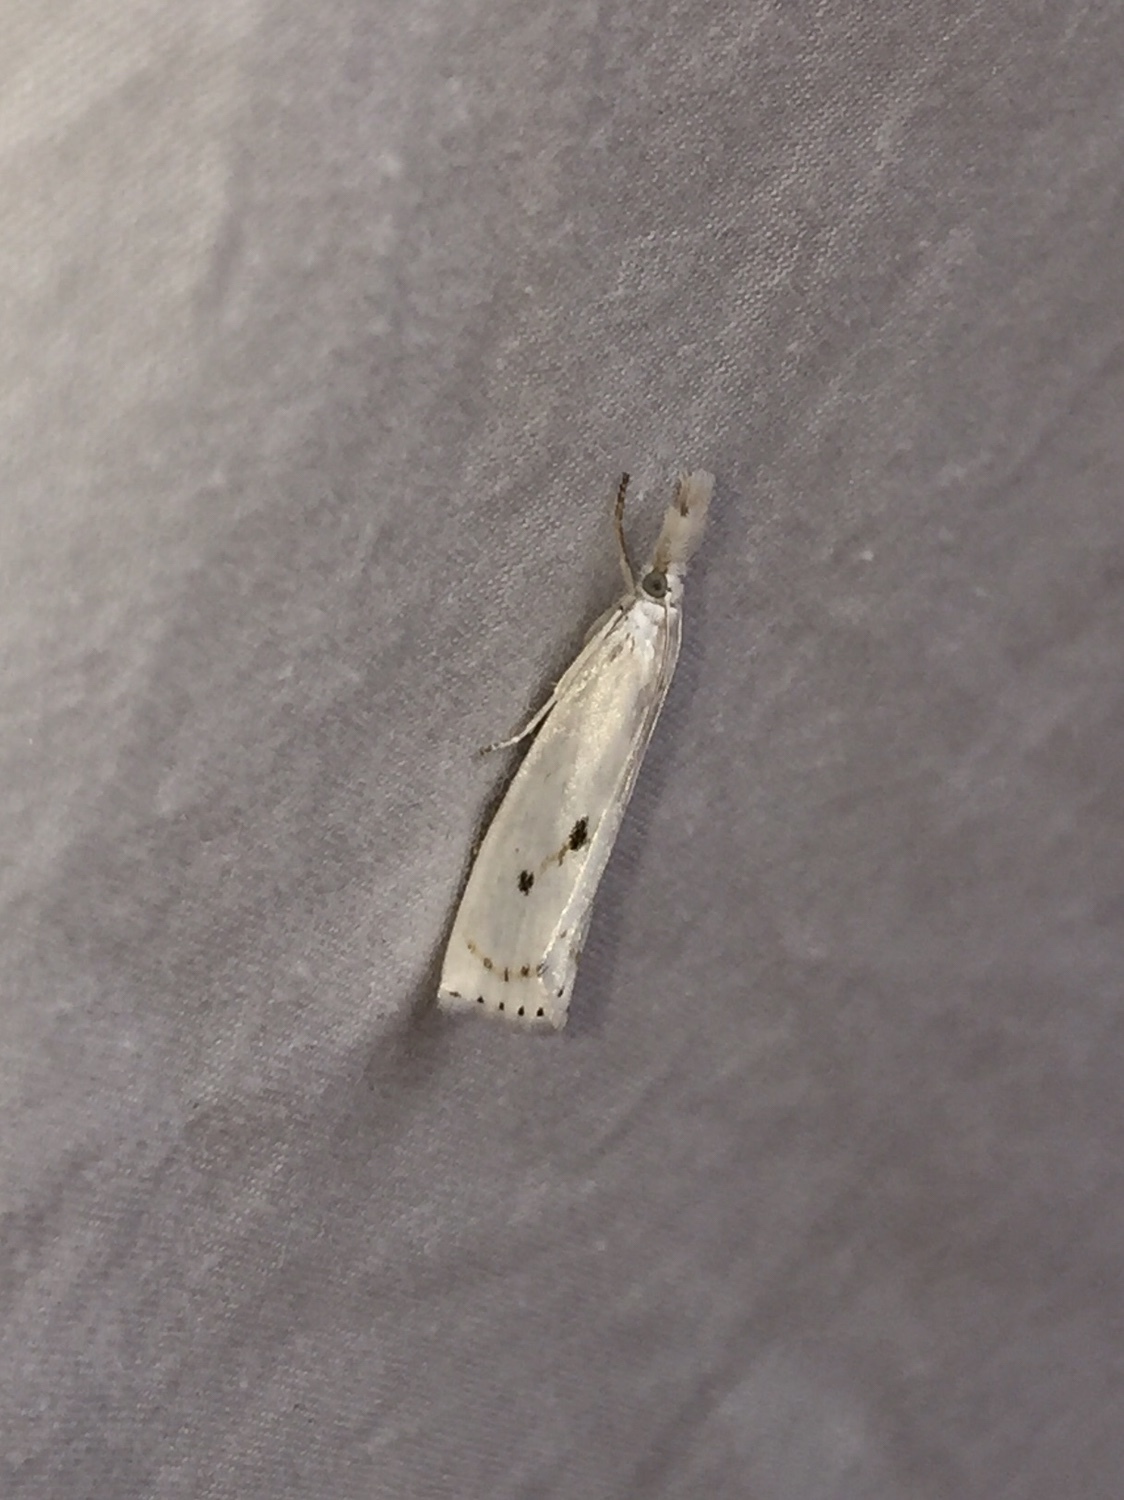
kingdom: Animalia
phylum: Arthropoda
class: Insecta
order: Lepidoptera
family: Crambidae
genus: Crambus
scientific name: Crambus Arequipa turbatella
